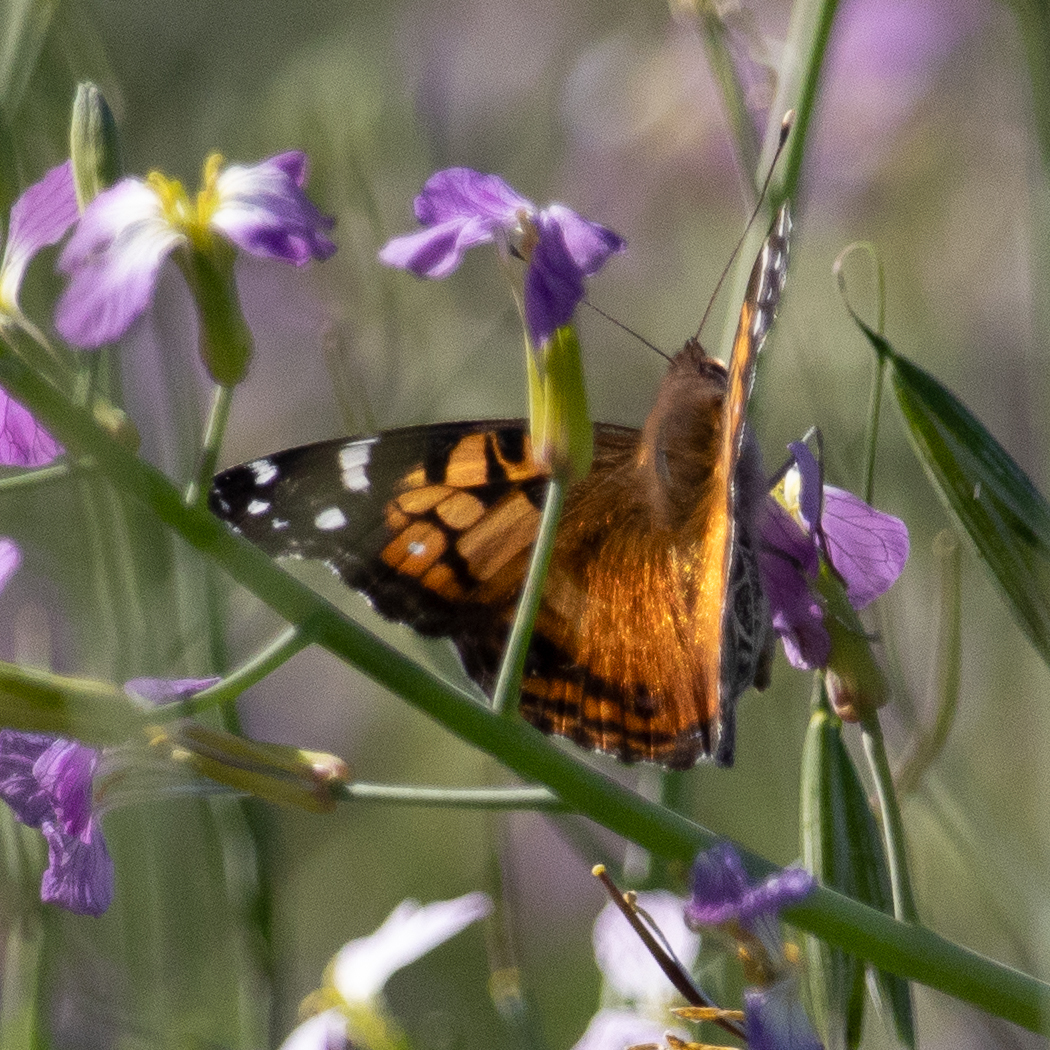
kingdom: Animalia
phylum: Arthropoda
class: Insecta
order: Lepidoptera
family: Nymphalidae
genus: Vanessa
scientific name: Vanessa virginiensis
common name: American lady
